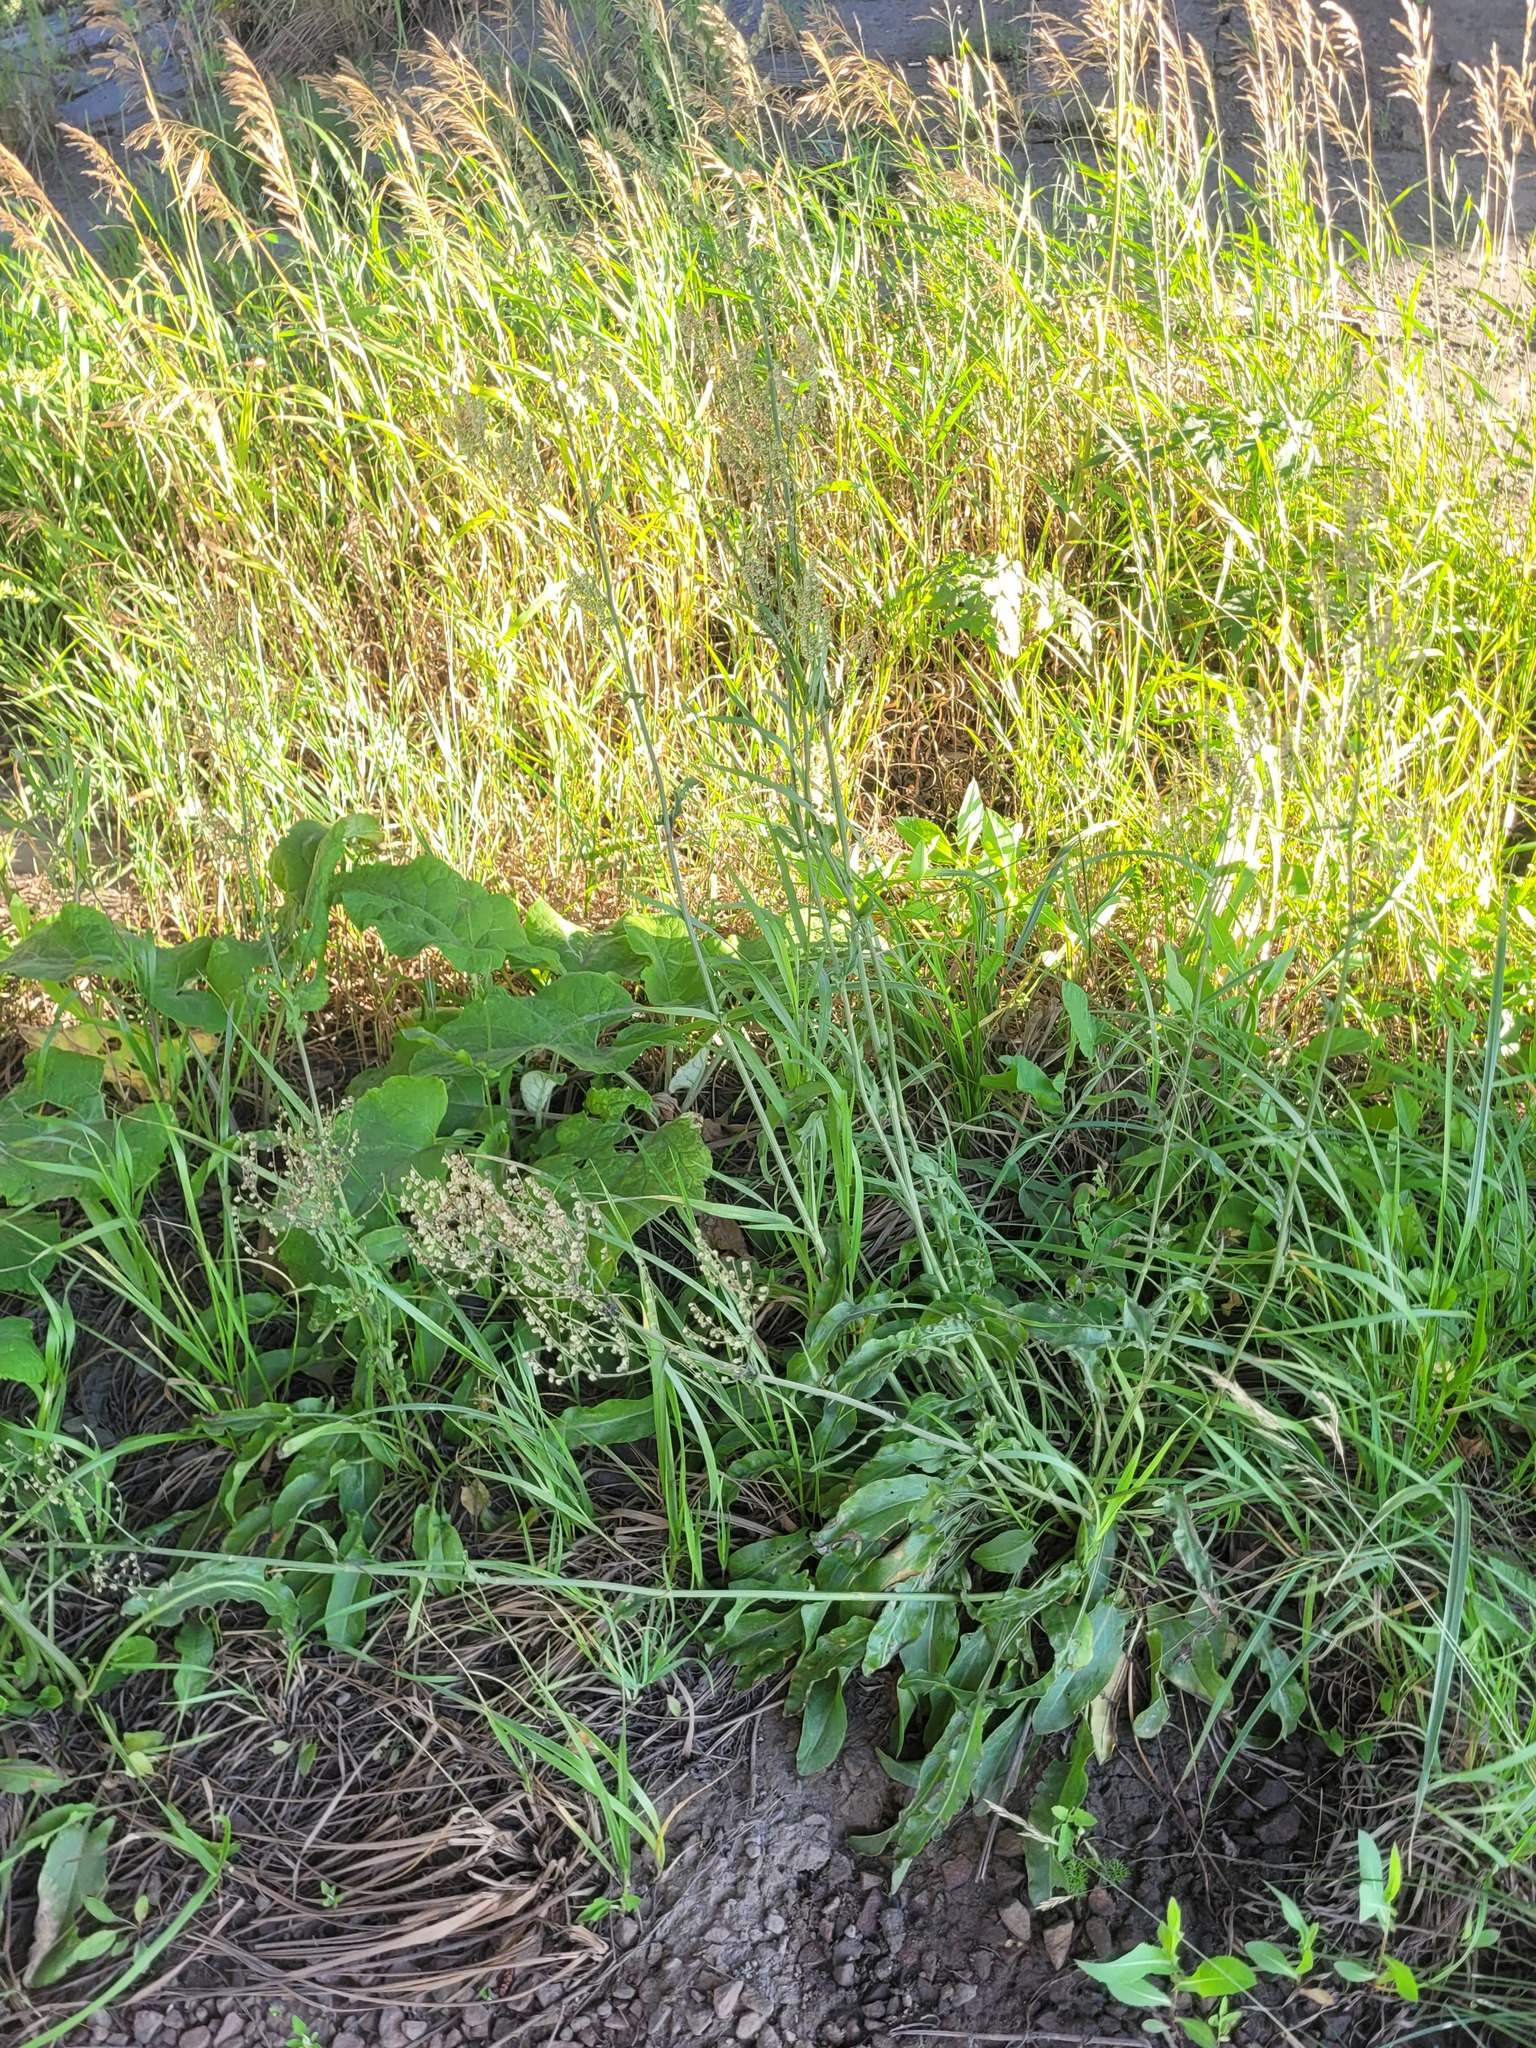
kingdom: Plantae
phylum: Tracheophyta
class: Magnoliopsida
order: Caryophyllales
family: Polygonaceae
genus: Rumex
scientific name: Rumex thyrsiflorus
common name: Garden sorrel
